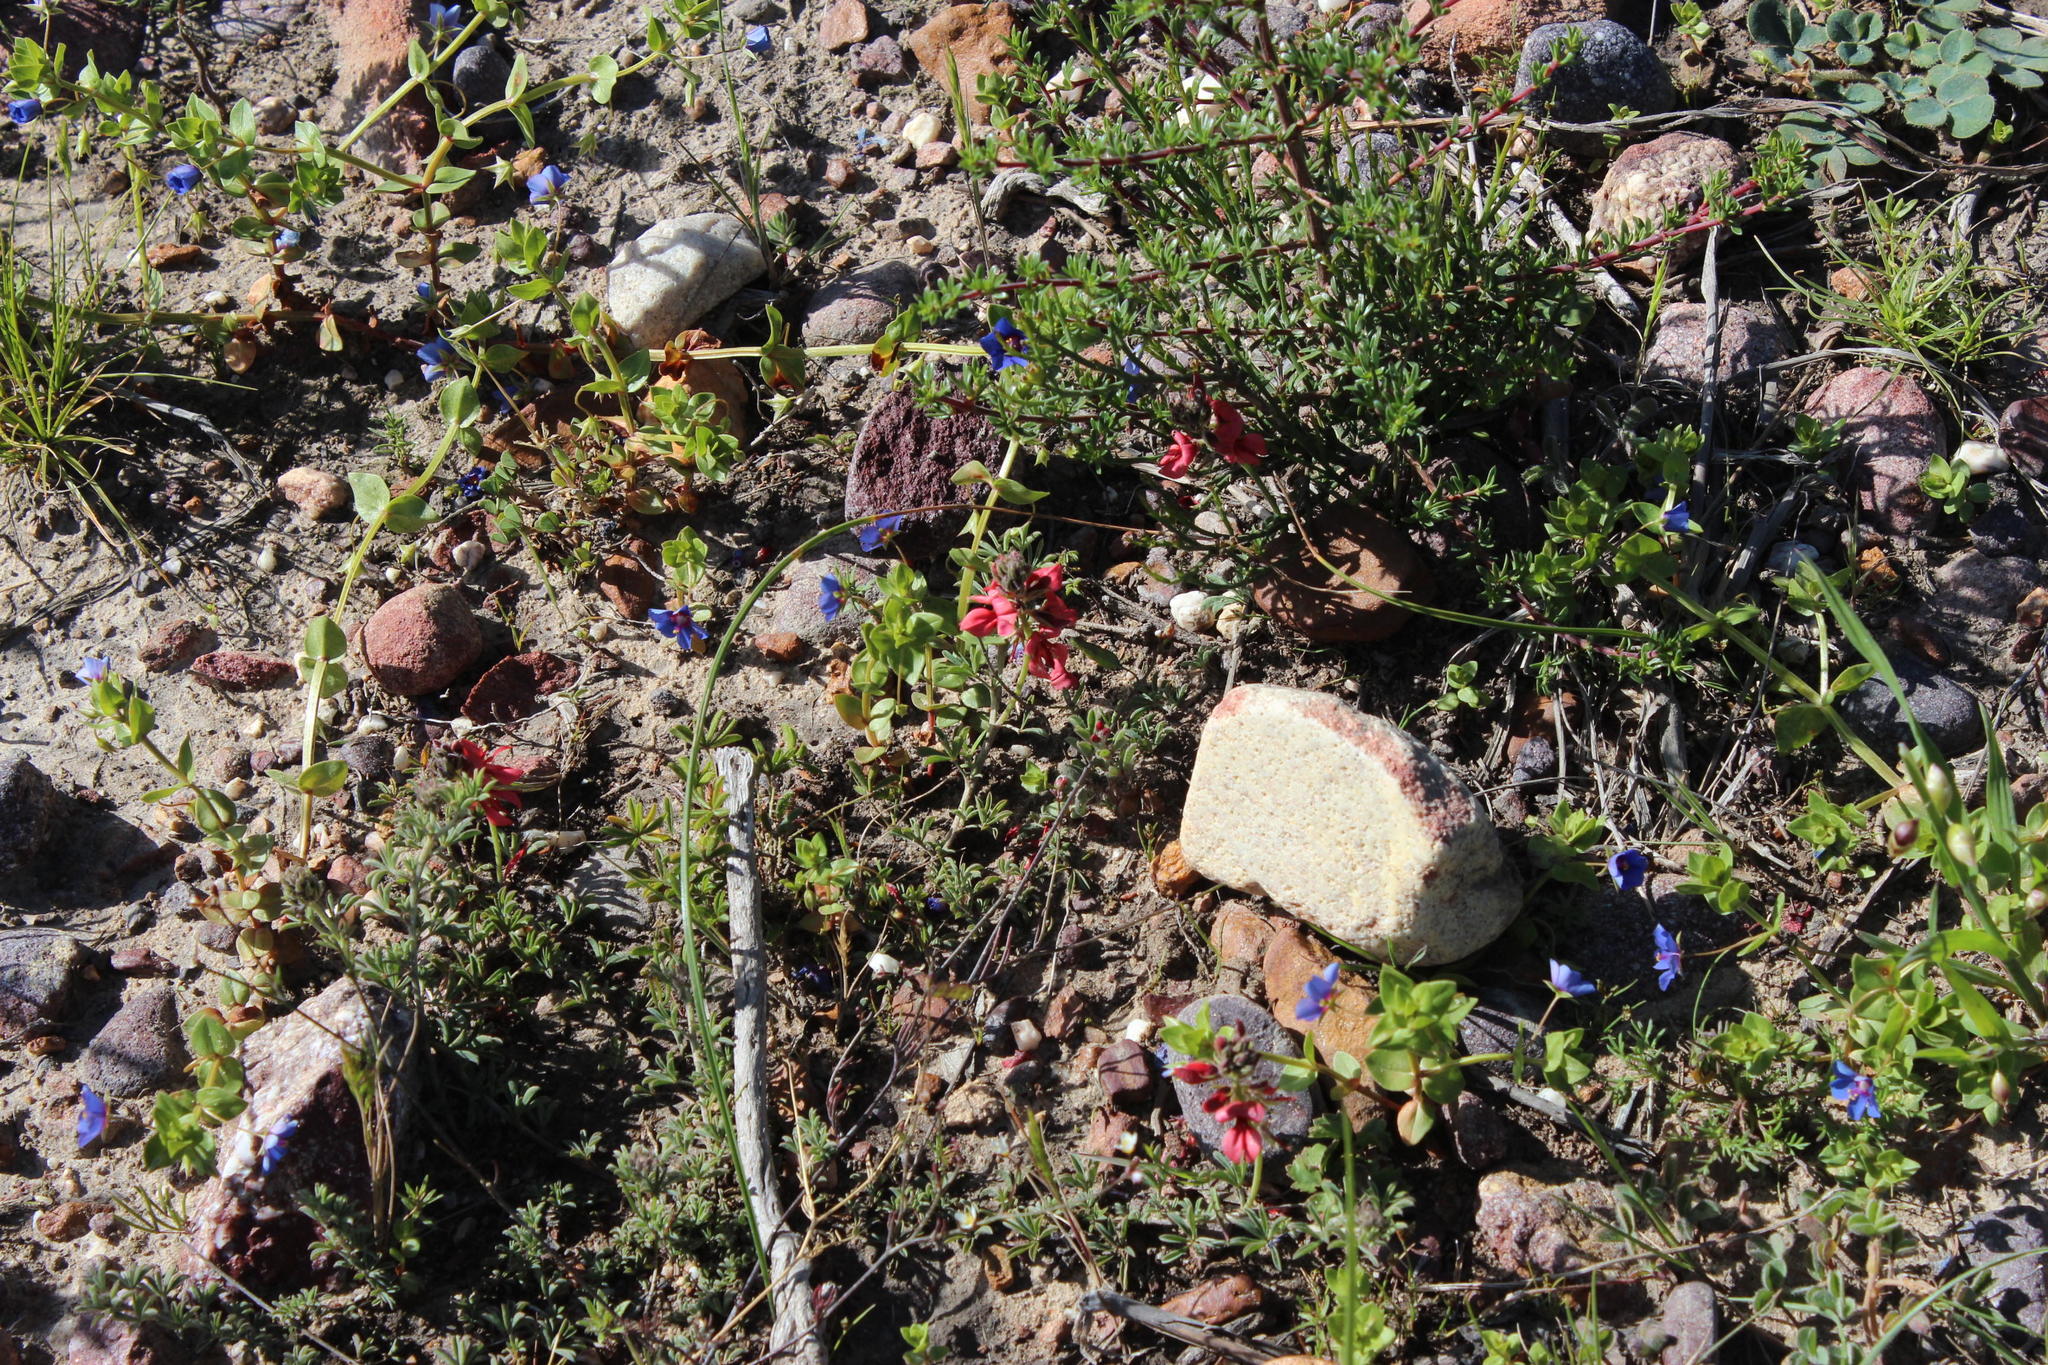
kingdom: Plantae
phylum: Tracheophyta
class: Magnoliopsida
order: Fabales
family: Fabaceae
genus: Indigofera
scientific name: Indigofera digitata
